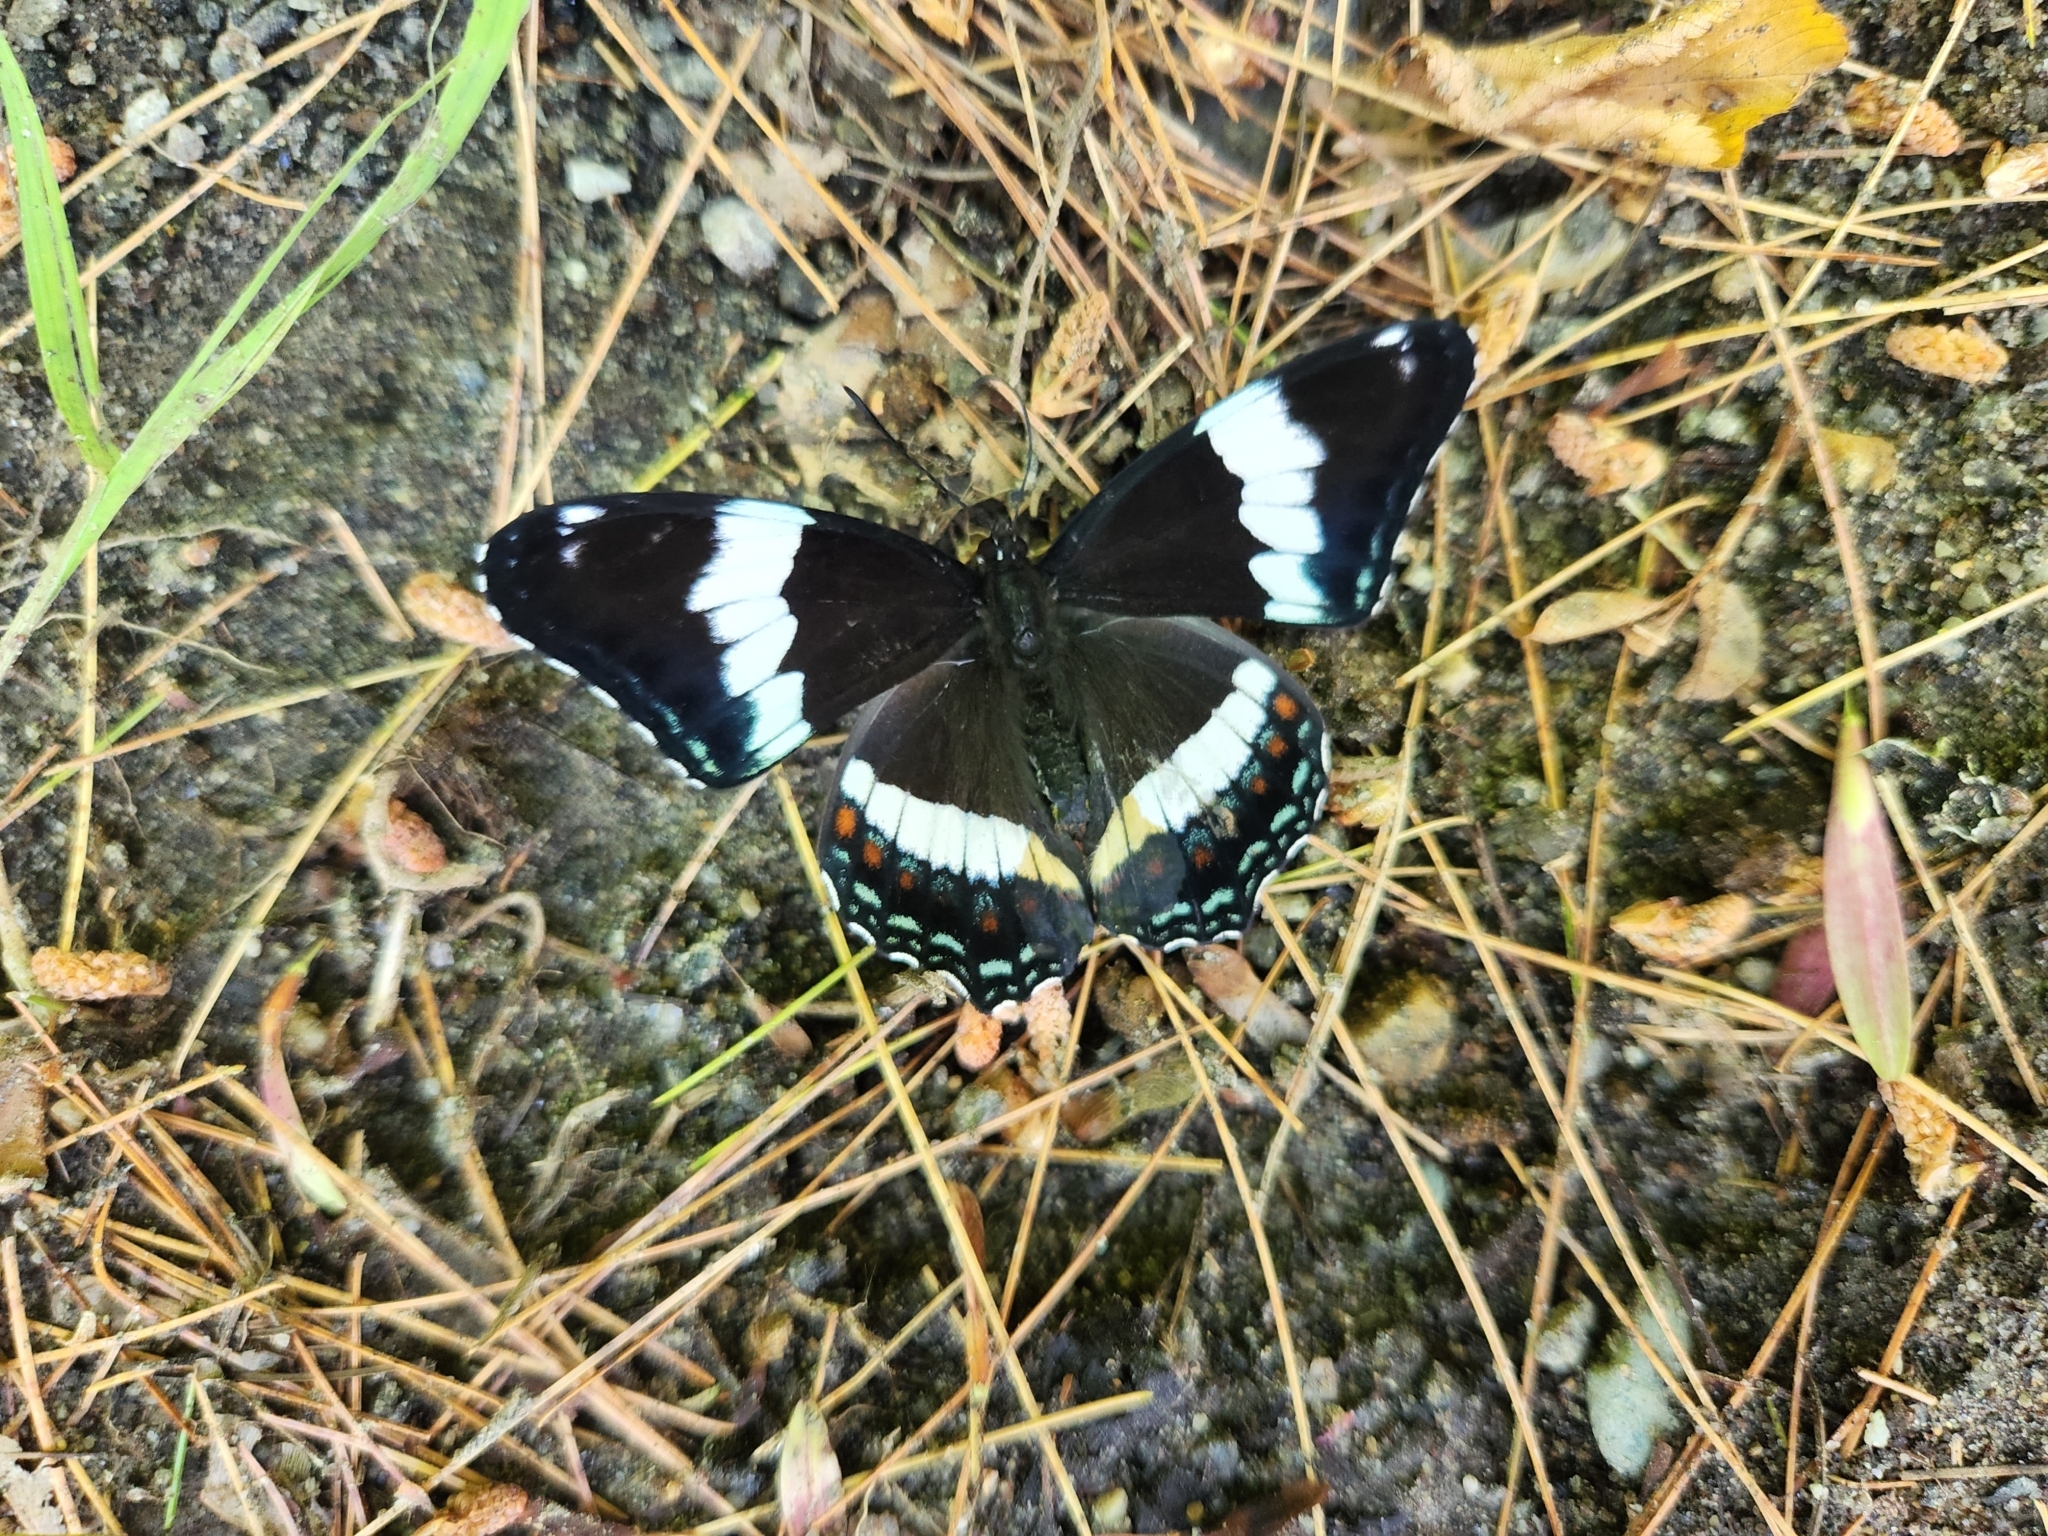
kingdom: Animalia
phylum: Arthropoda
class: Insecta
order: Lepidoptera
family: Nymphalidae
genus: Limenitis
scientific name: Limenitis arthemis
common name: Red-spotted admiral
